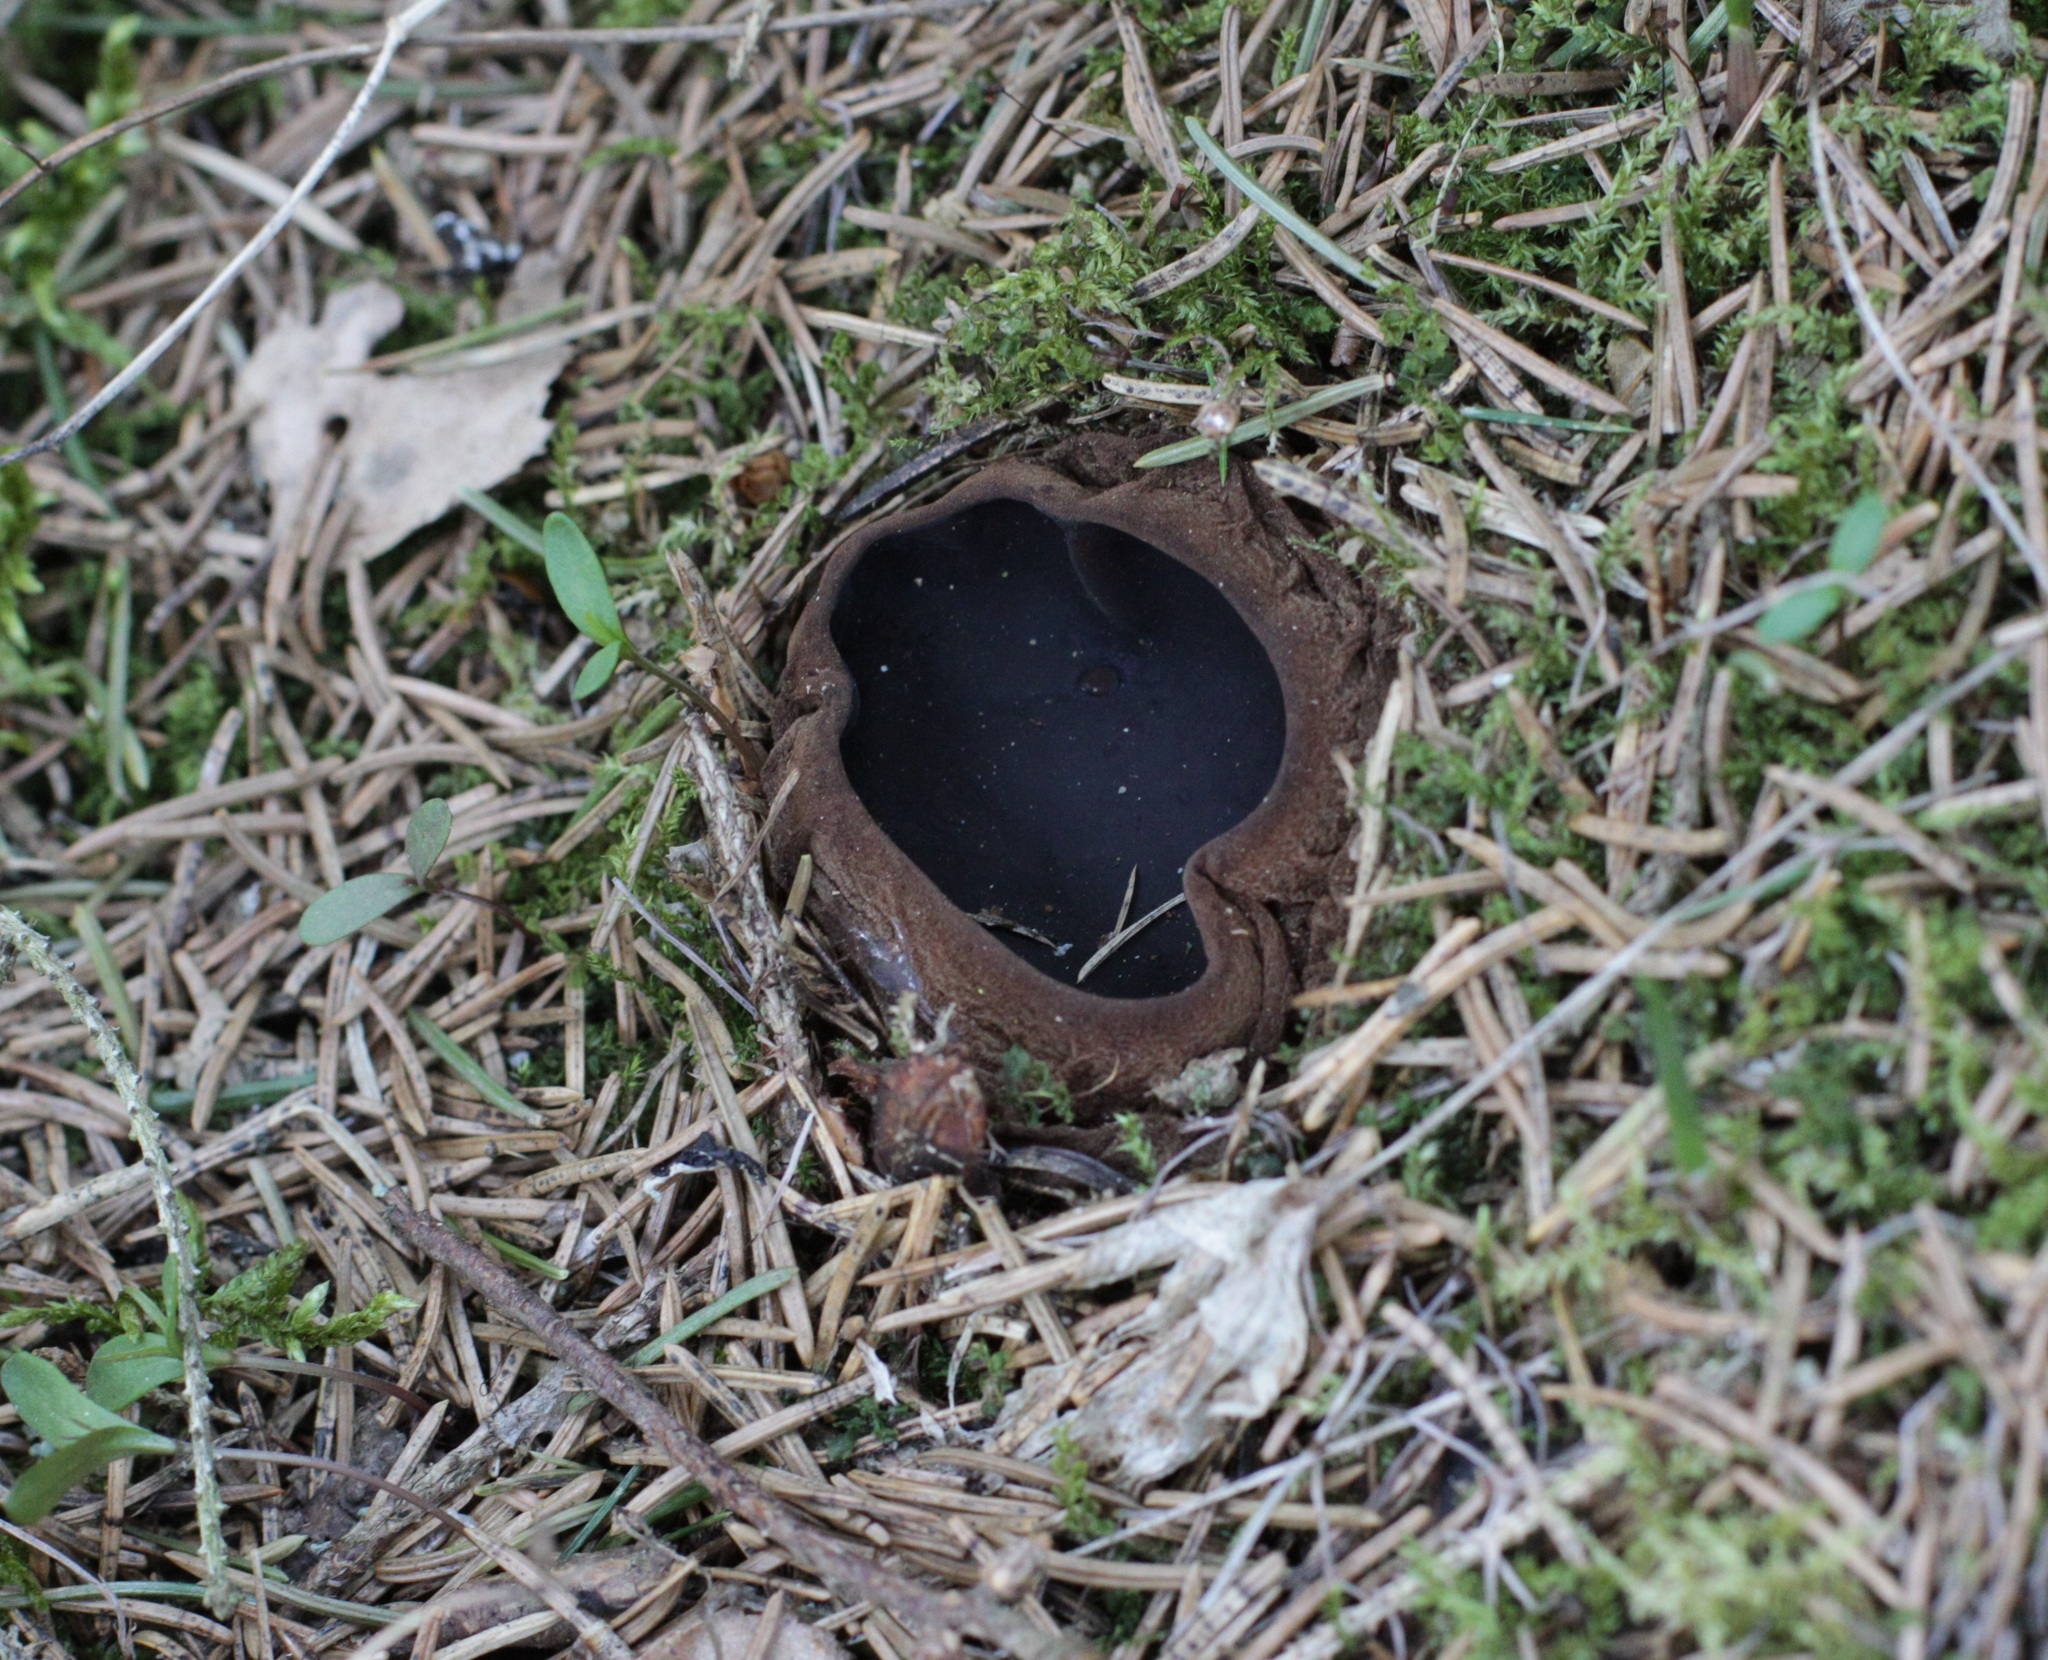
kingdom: Fungi
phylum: Ascomycota
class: Pezizomycetes
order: Pezizales
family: Sarcosomataceae
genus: Sarcosoma
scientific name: Sarcosoma globosum
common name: Charred-pancake cup
